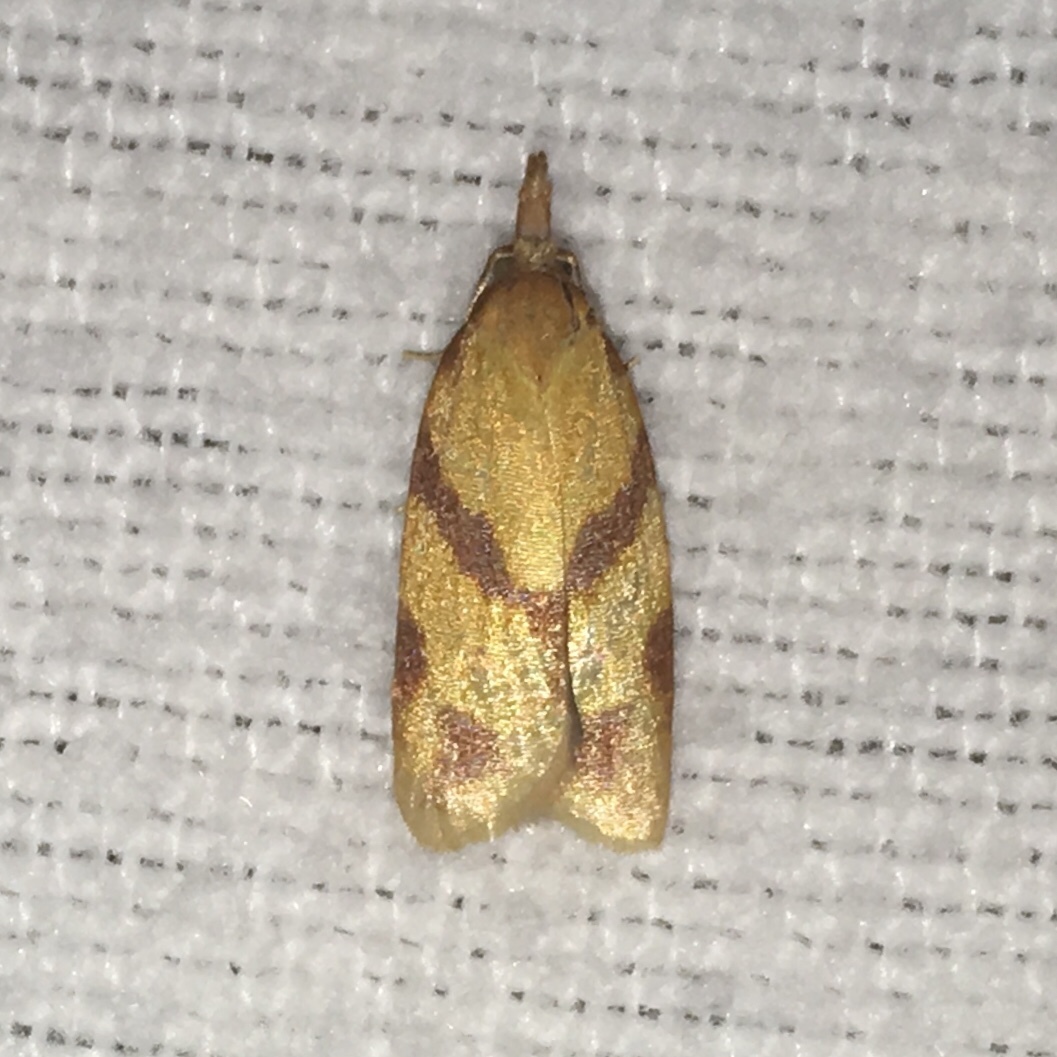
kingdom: Animalia
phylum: Arthropoda
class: Insecta
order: Lepidoptera
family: Tortricidae
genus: Sparganothis
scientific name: Sparganothis unifasciana
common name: One-lined sparganothis moth
